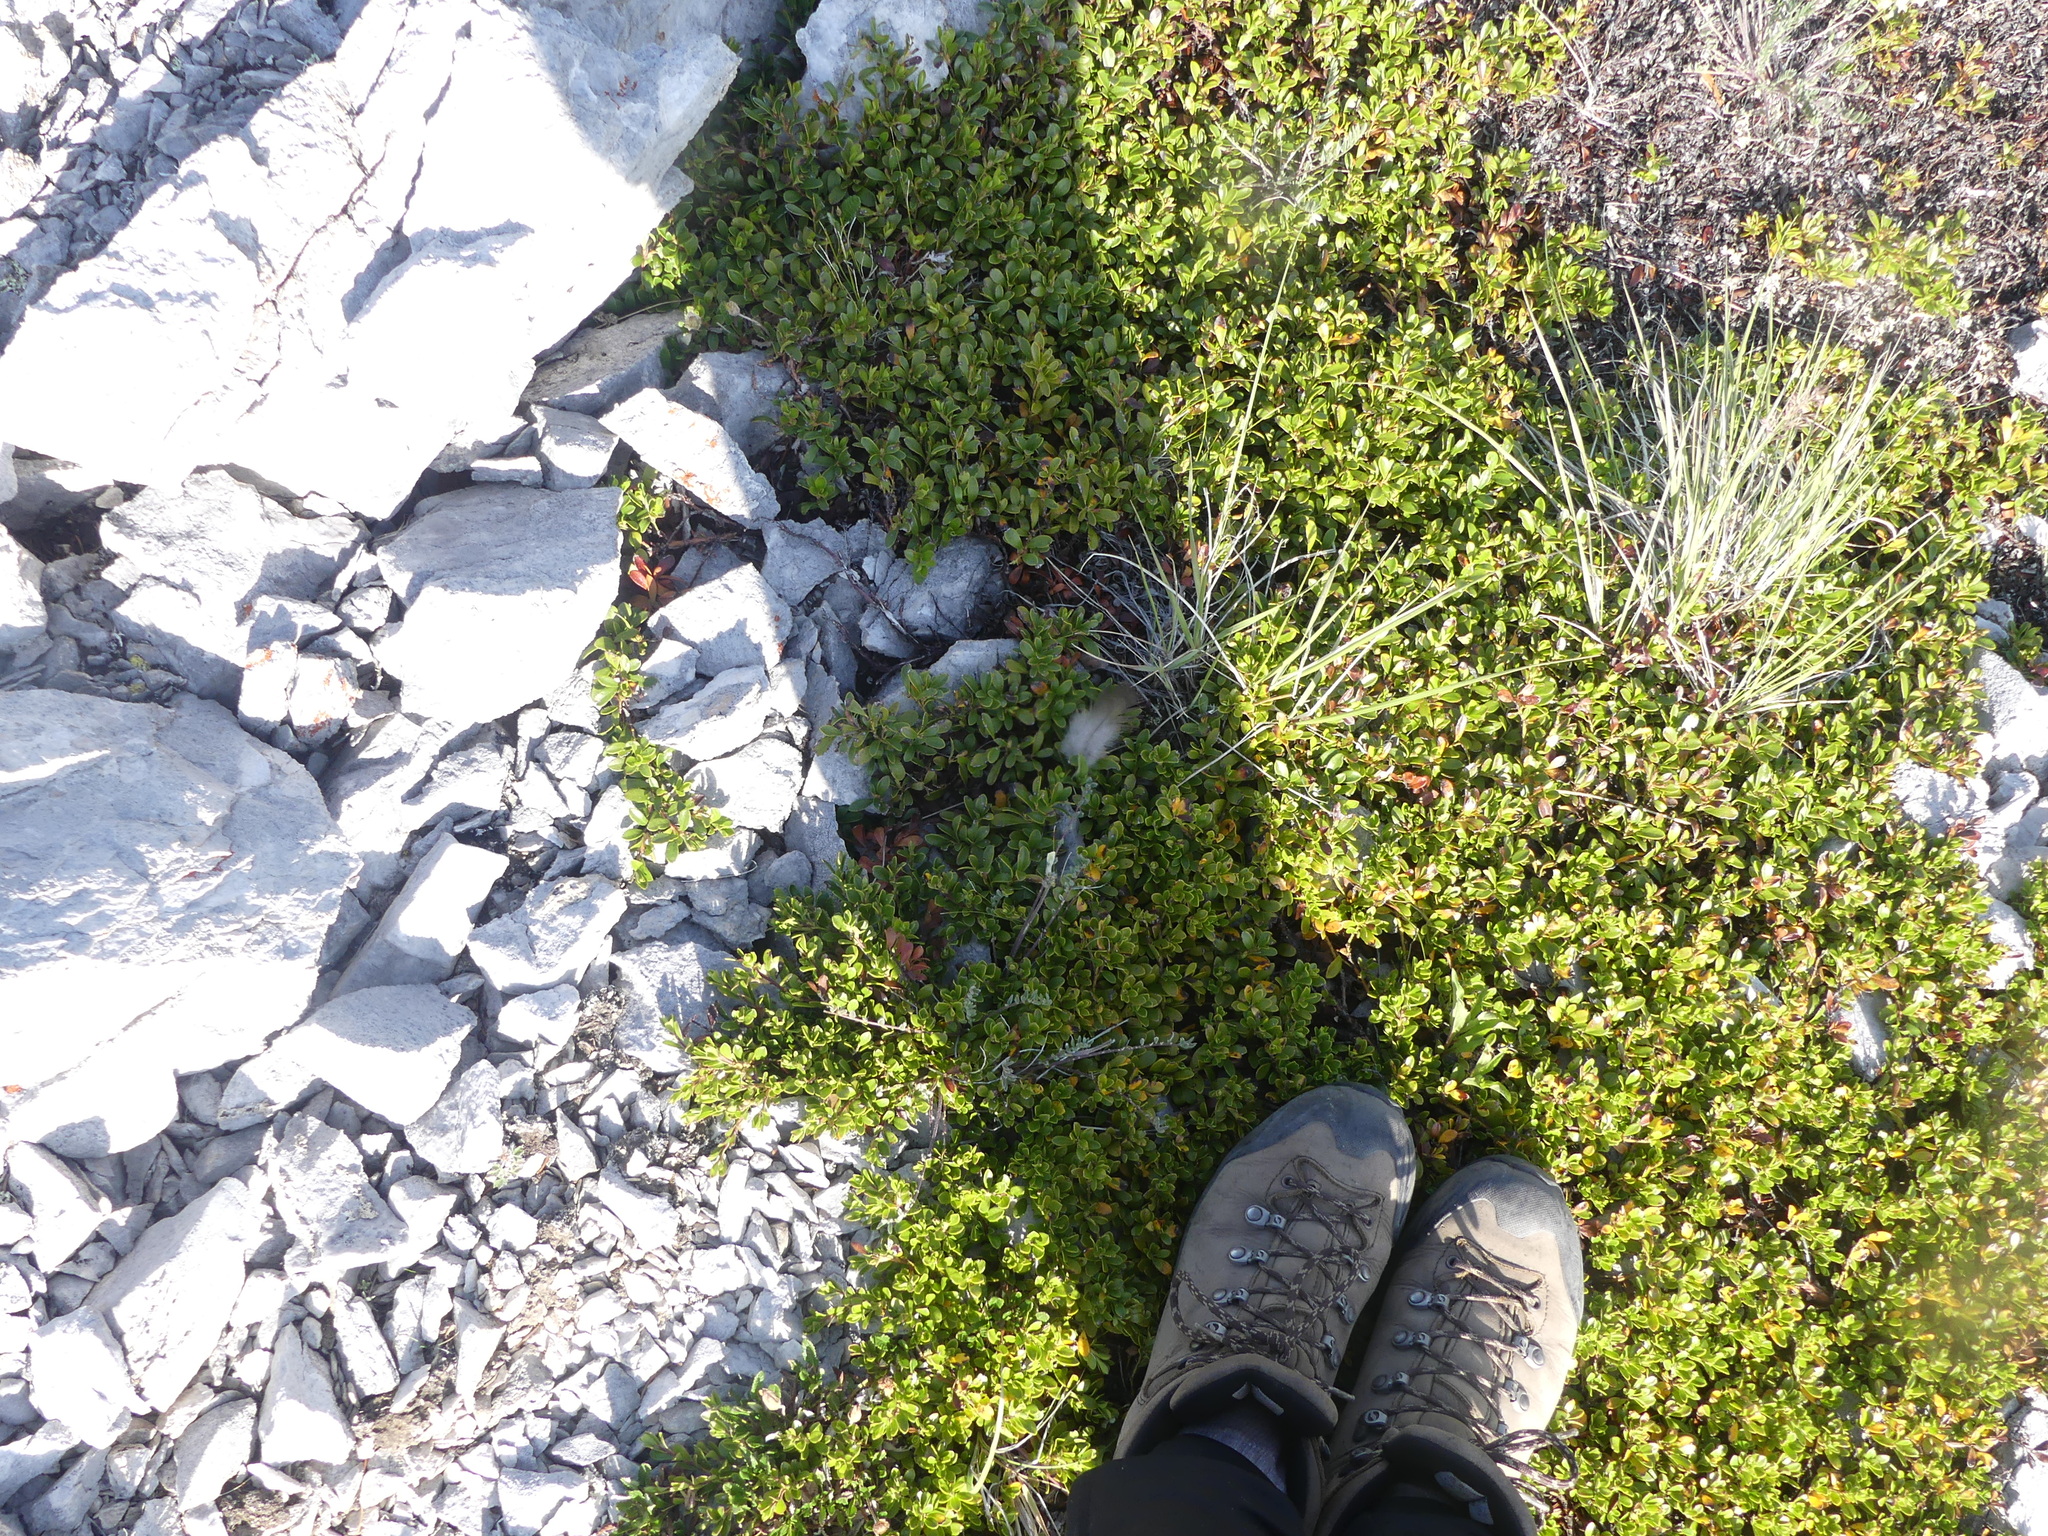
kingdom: Plantae
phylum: Tracheophyta
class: Magnoliopsida
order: Ericales
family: Ericaceae
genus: Arctostaphylos
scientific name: Arctostaphylos uva-ursi
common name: Bearberry
